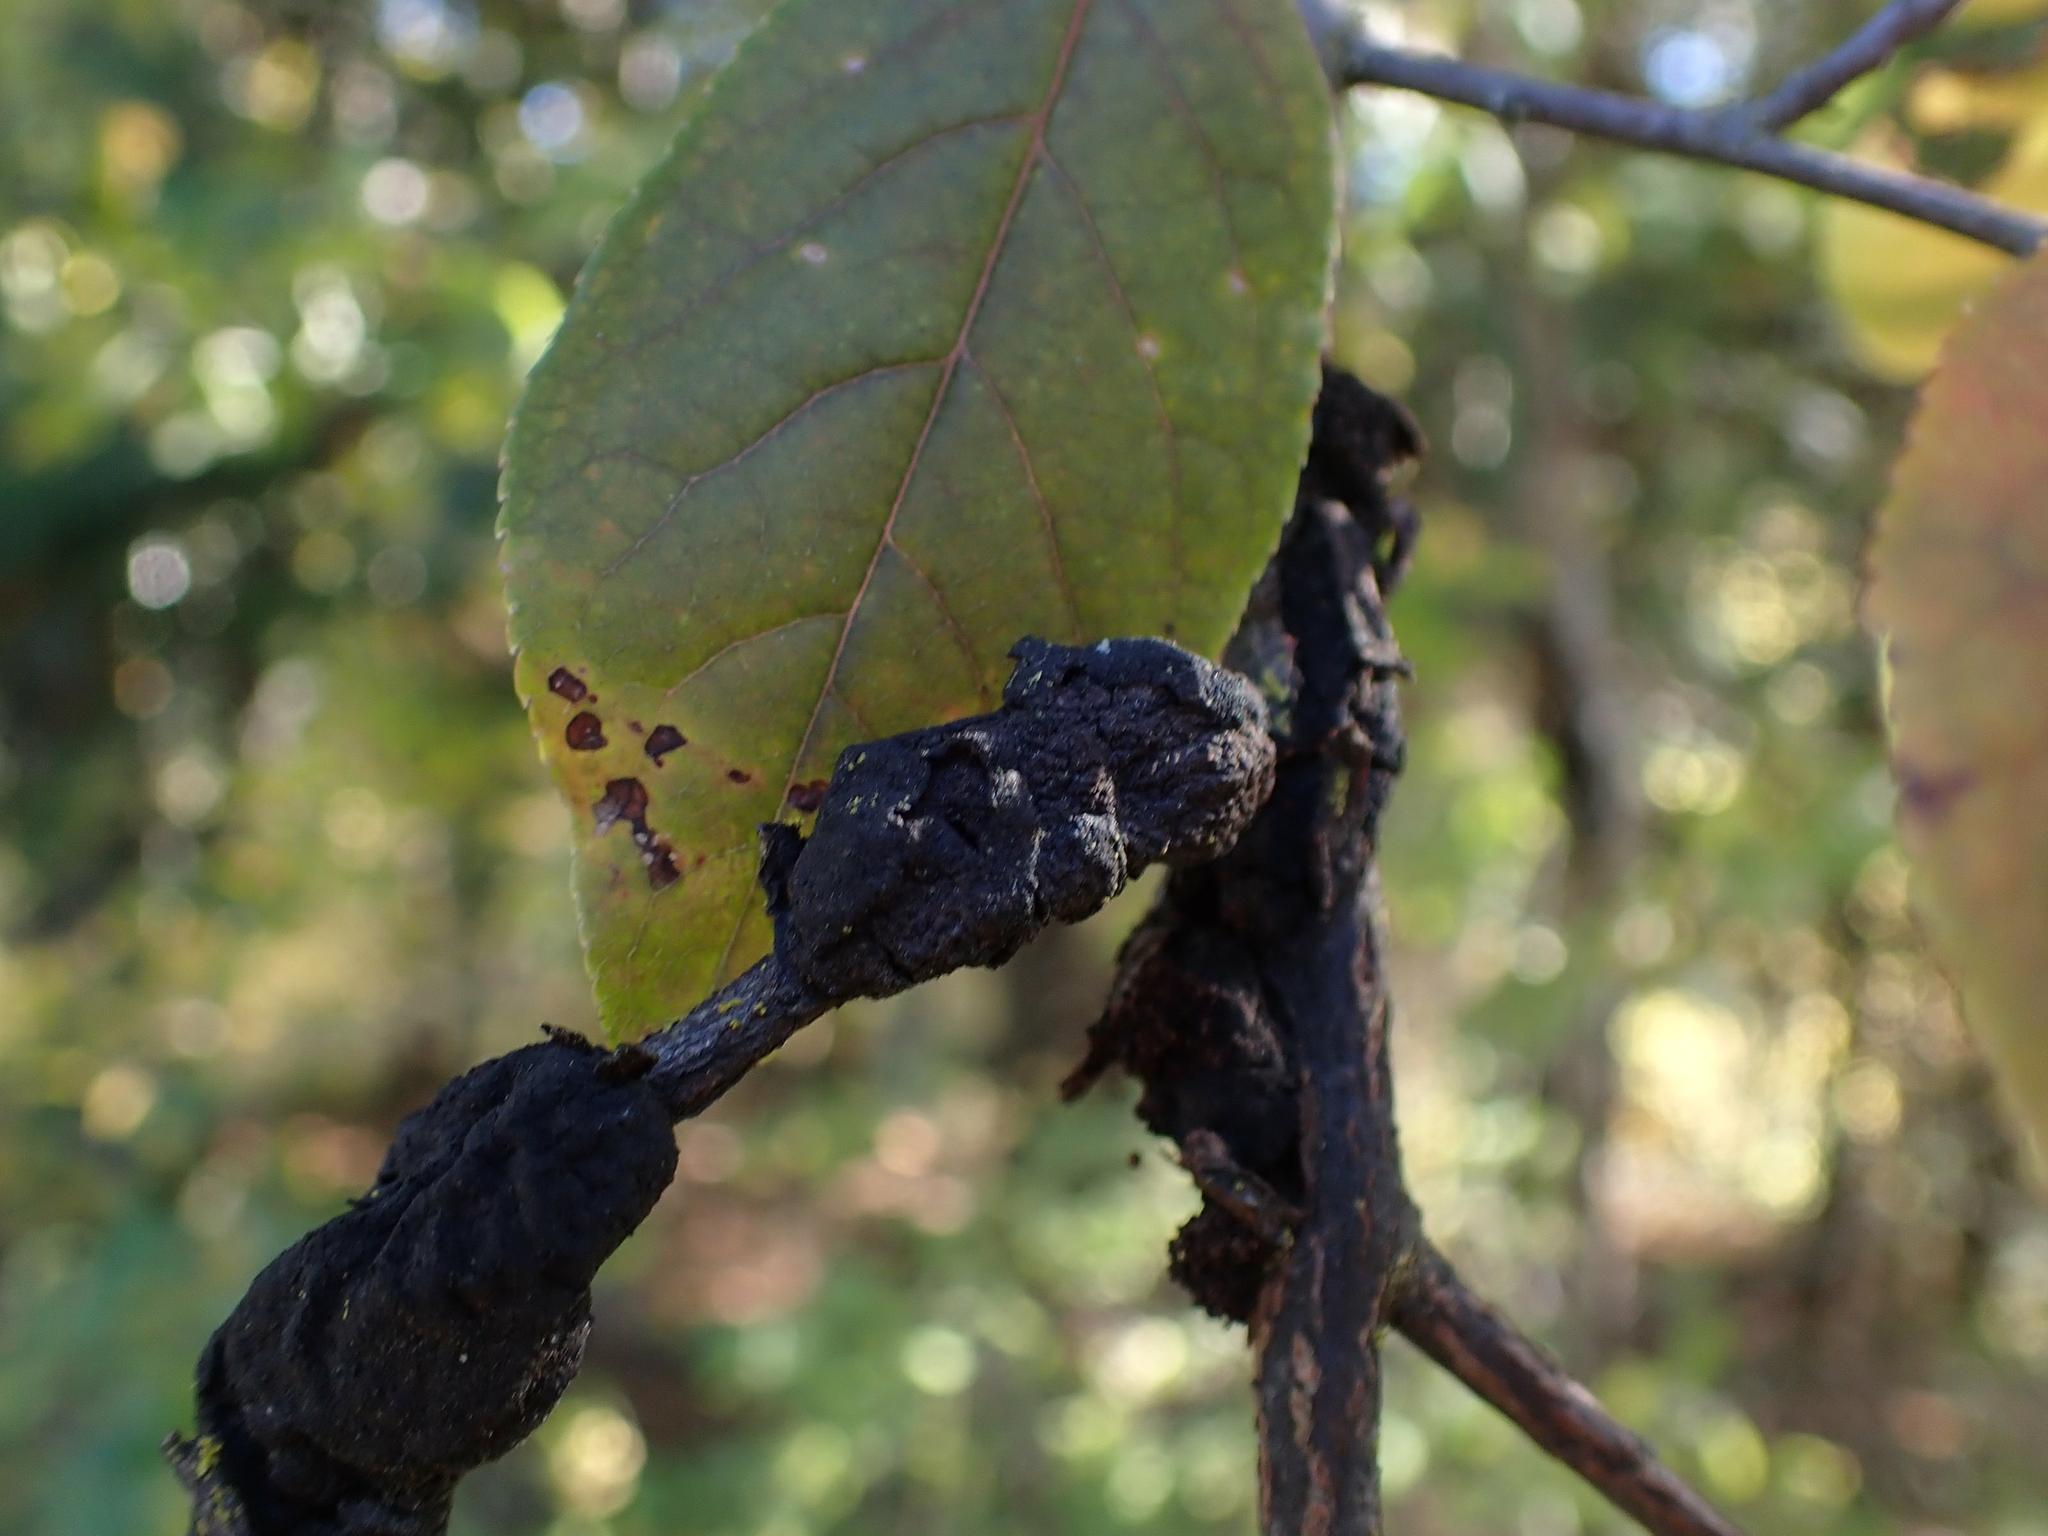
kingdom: Fungi
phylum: Ascomycota
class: Dothideomycetes
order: Venturiales
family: Venturiaceae
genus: Apiosporina
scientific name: Apiosporina morbosa
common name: Black knot
